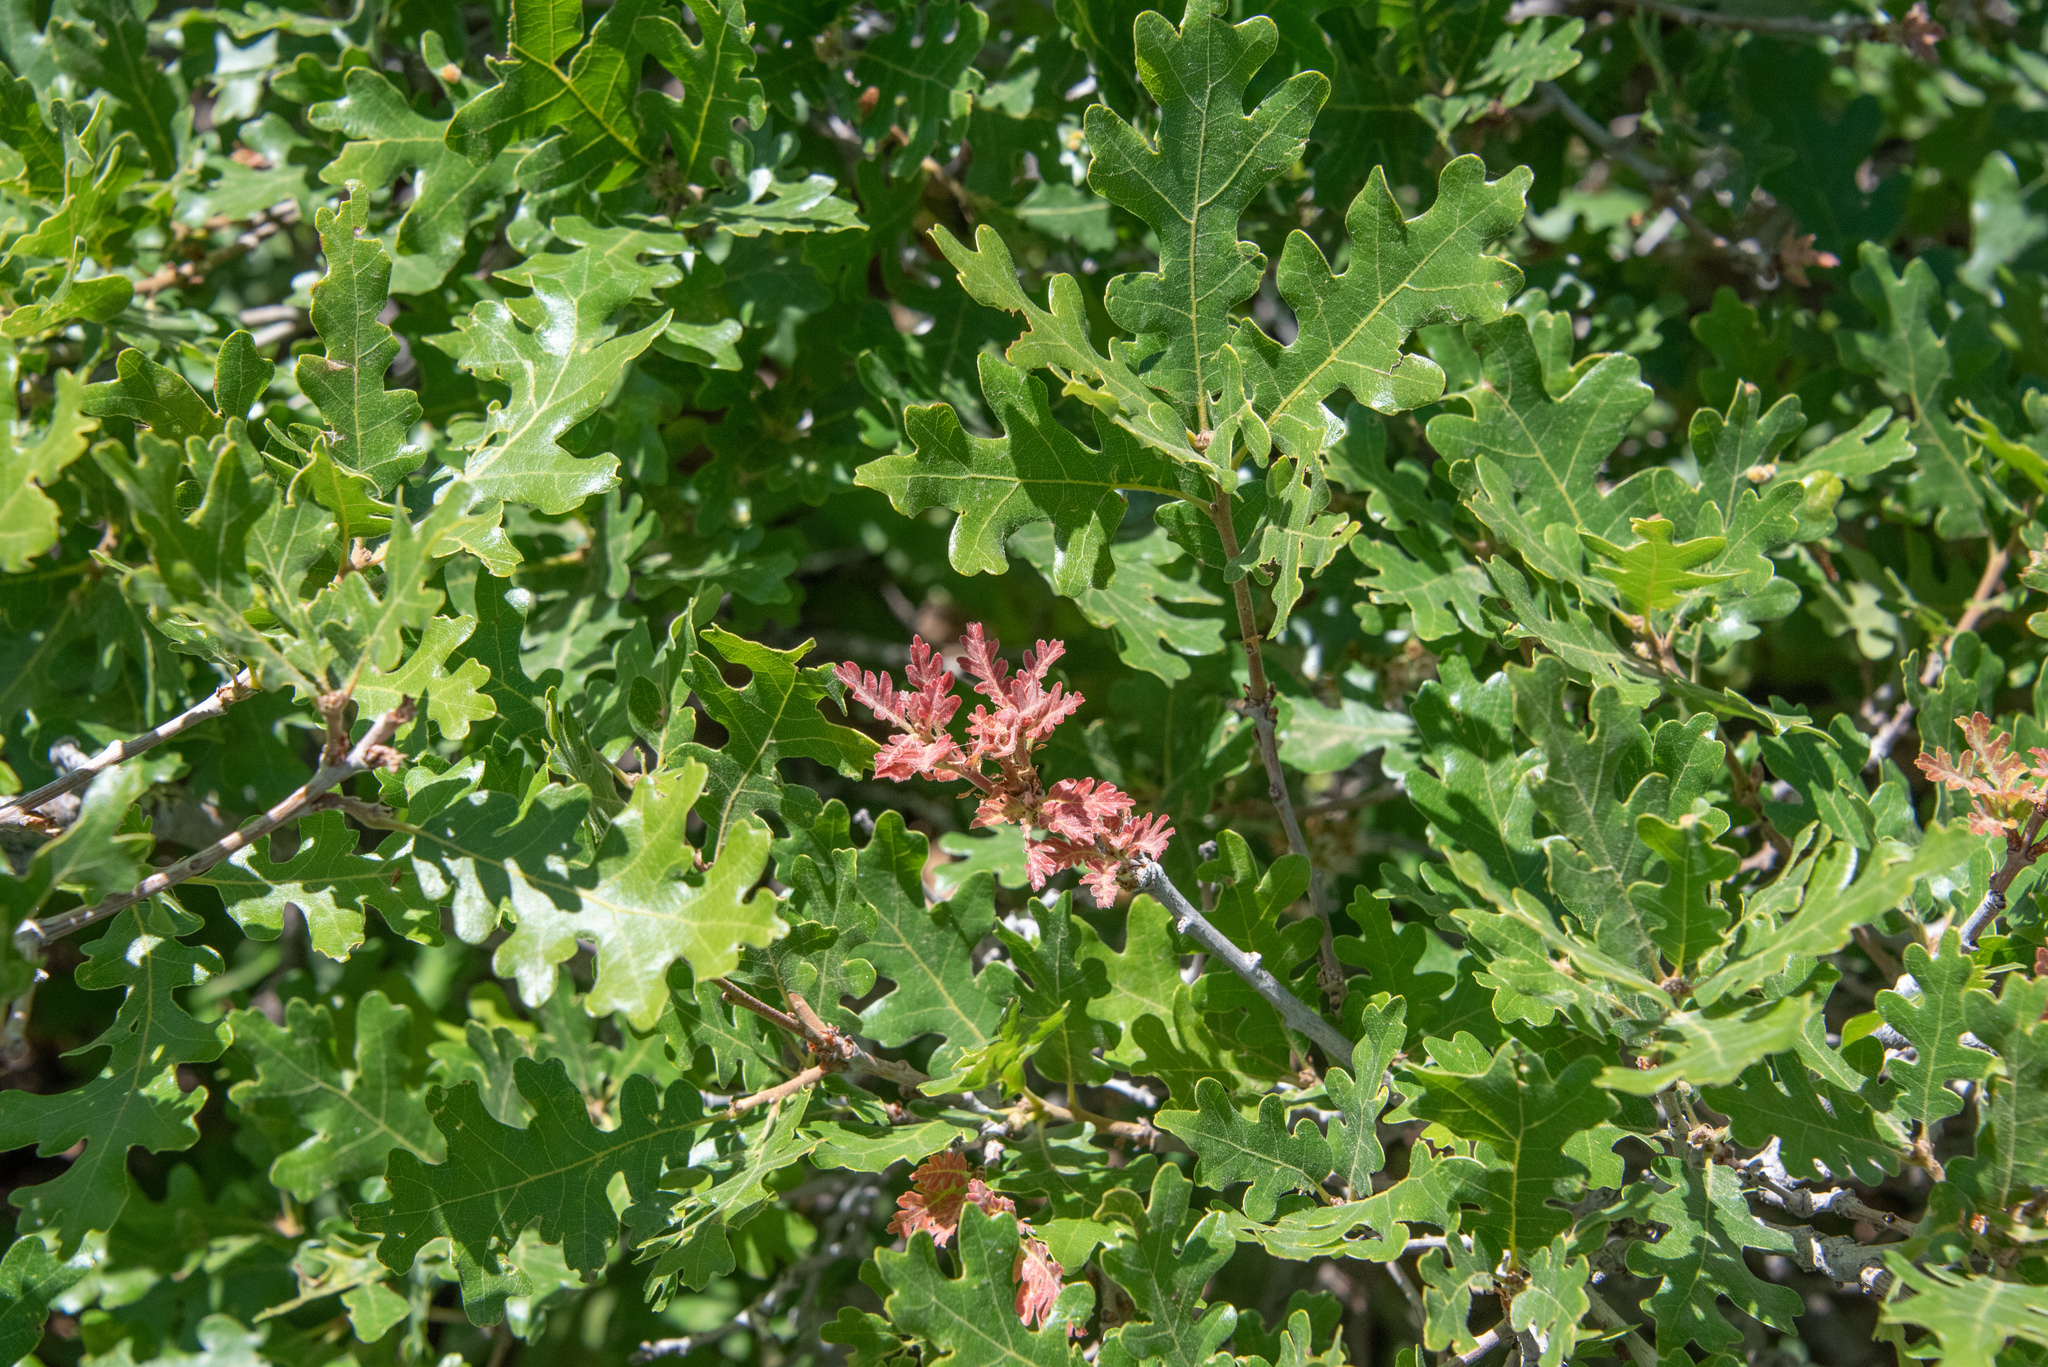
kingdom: Plantae
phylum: Tracheophyta
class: Magnoliopsida
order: Fagales
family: Fagaceae
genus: Quercus
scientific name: Quercus gambelii
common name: Gambel oak
